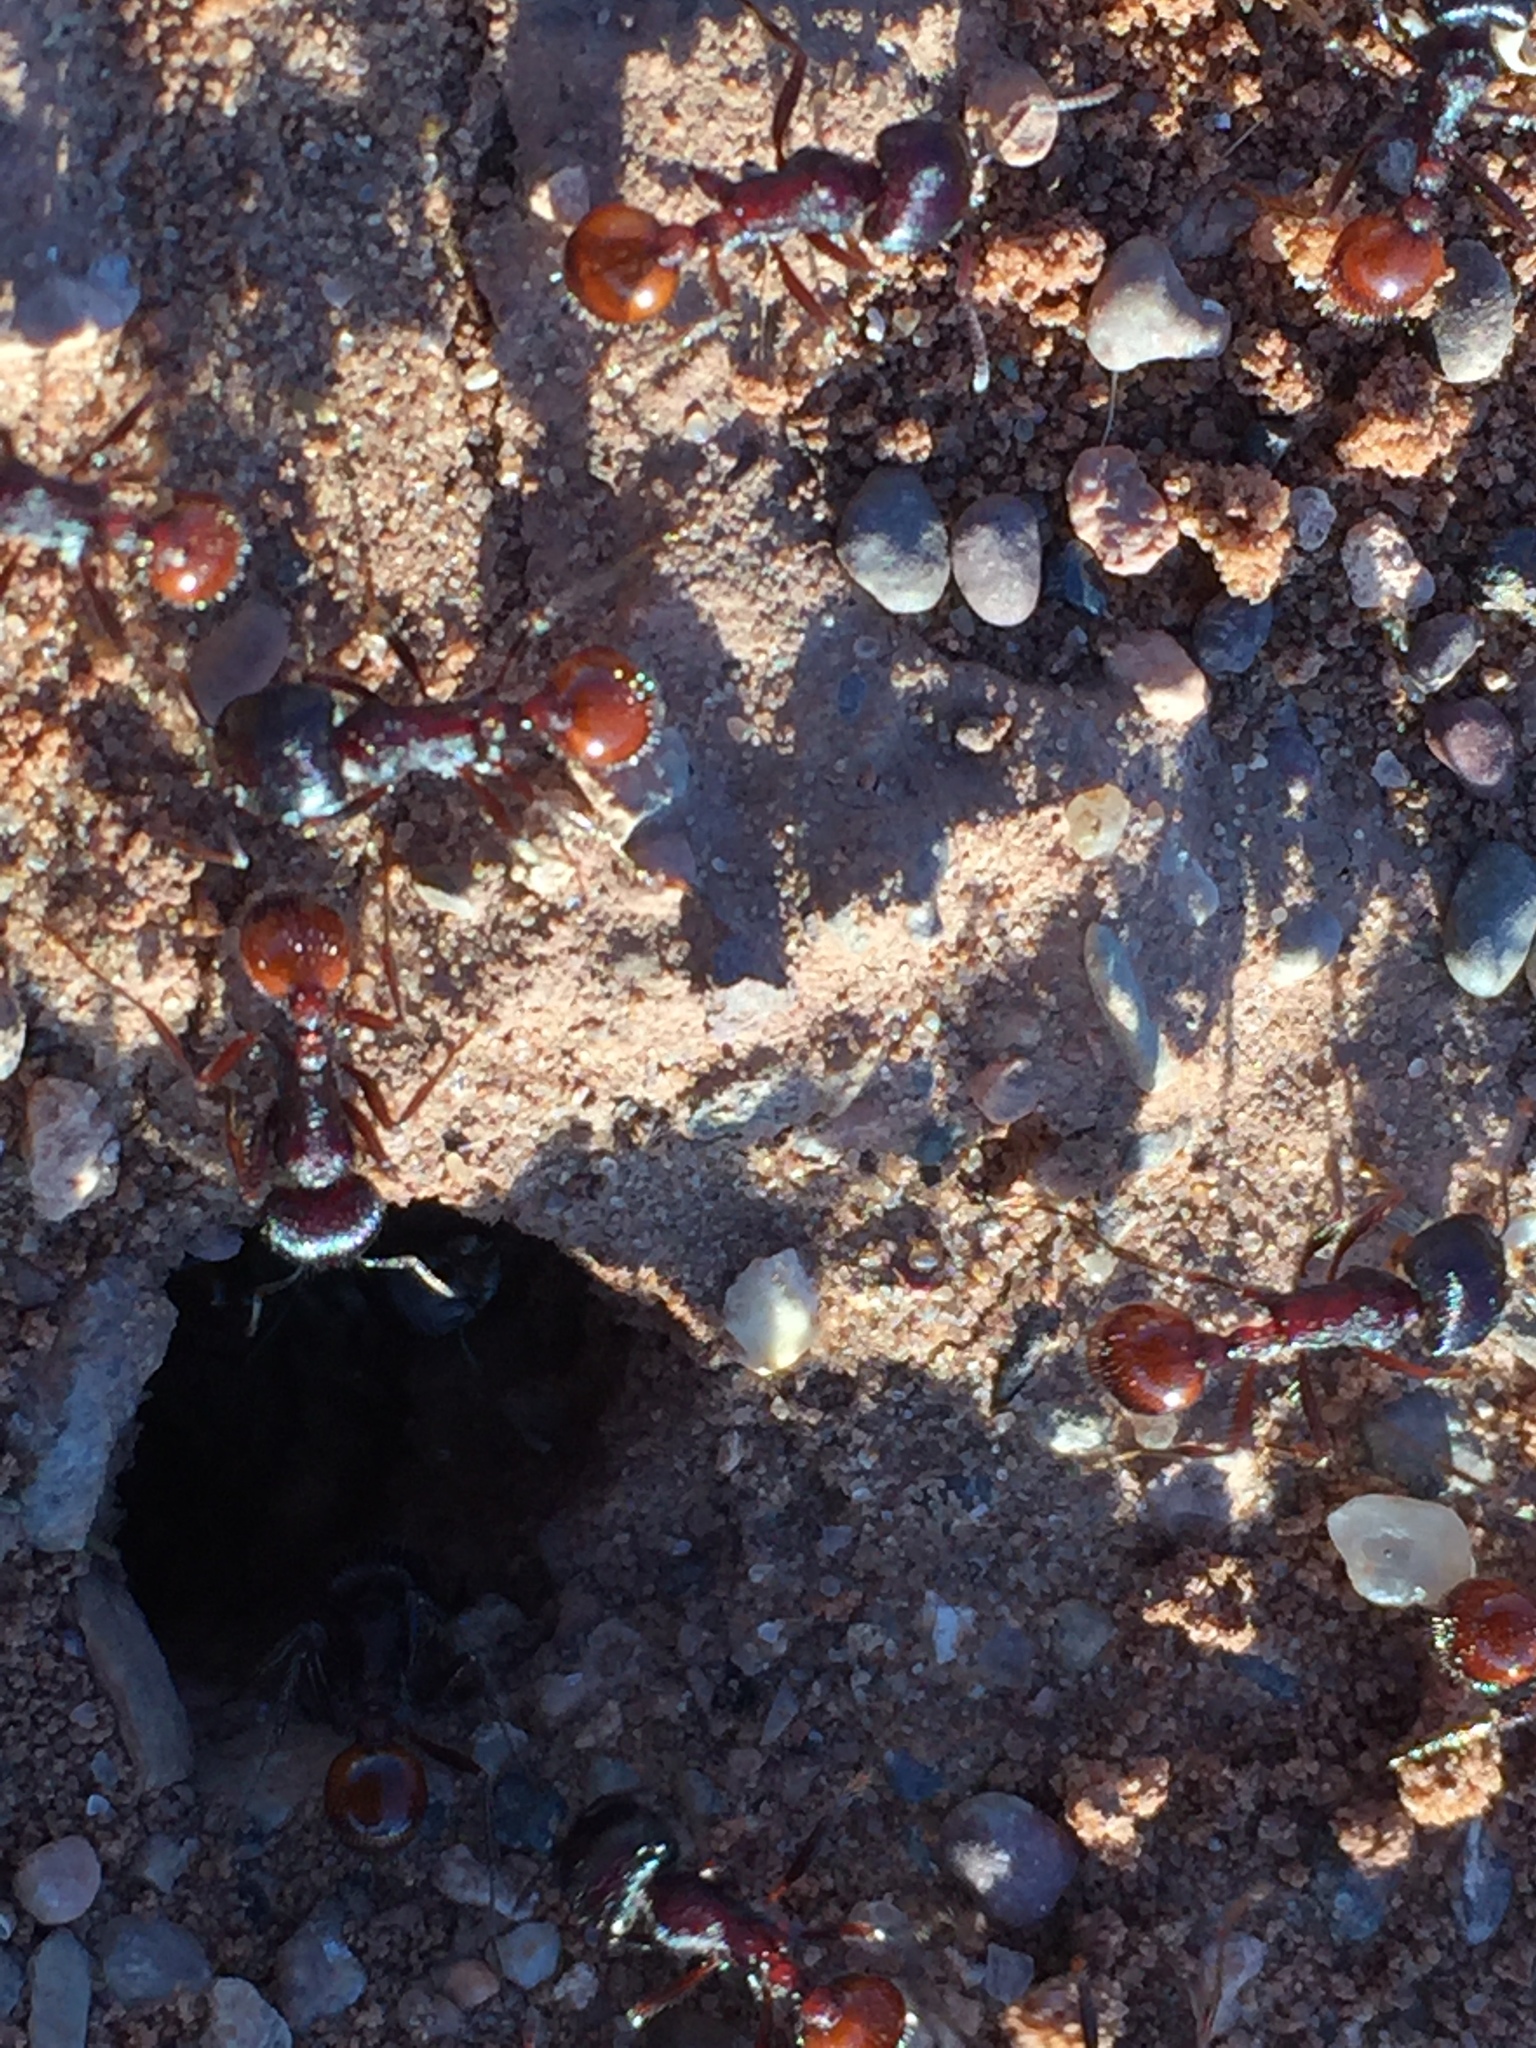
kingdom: Animalia
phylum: Arthropoda
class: Insecta
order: Hymenoptera
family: Formicidae
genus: Pogonomyrmex
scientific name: Pogonomyrmex rugosus
